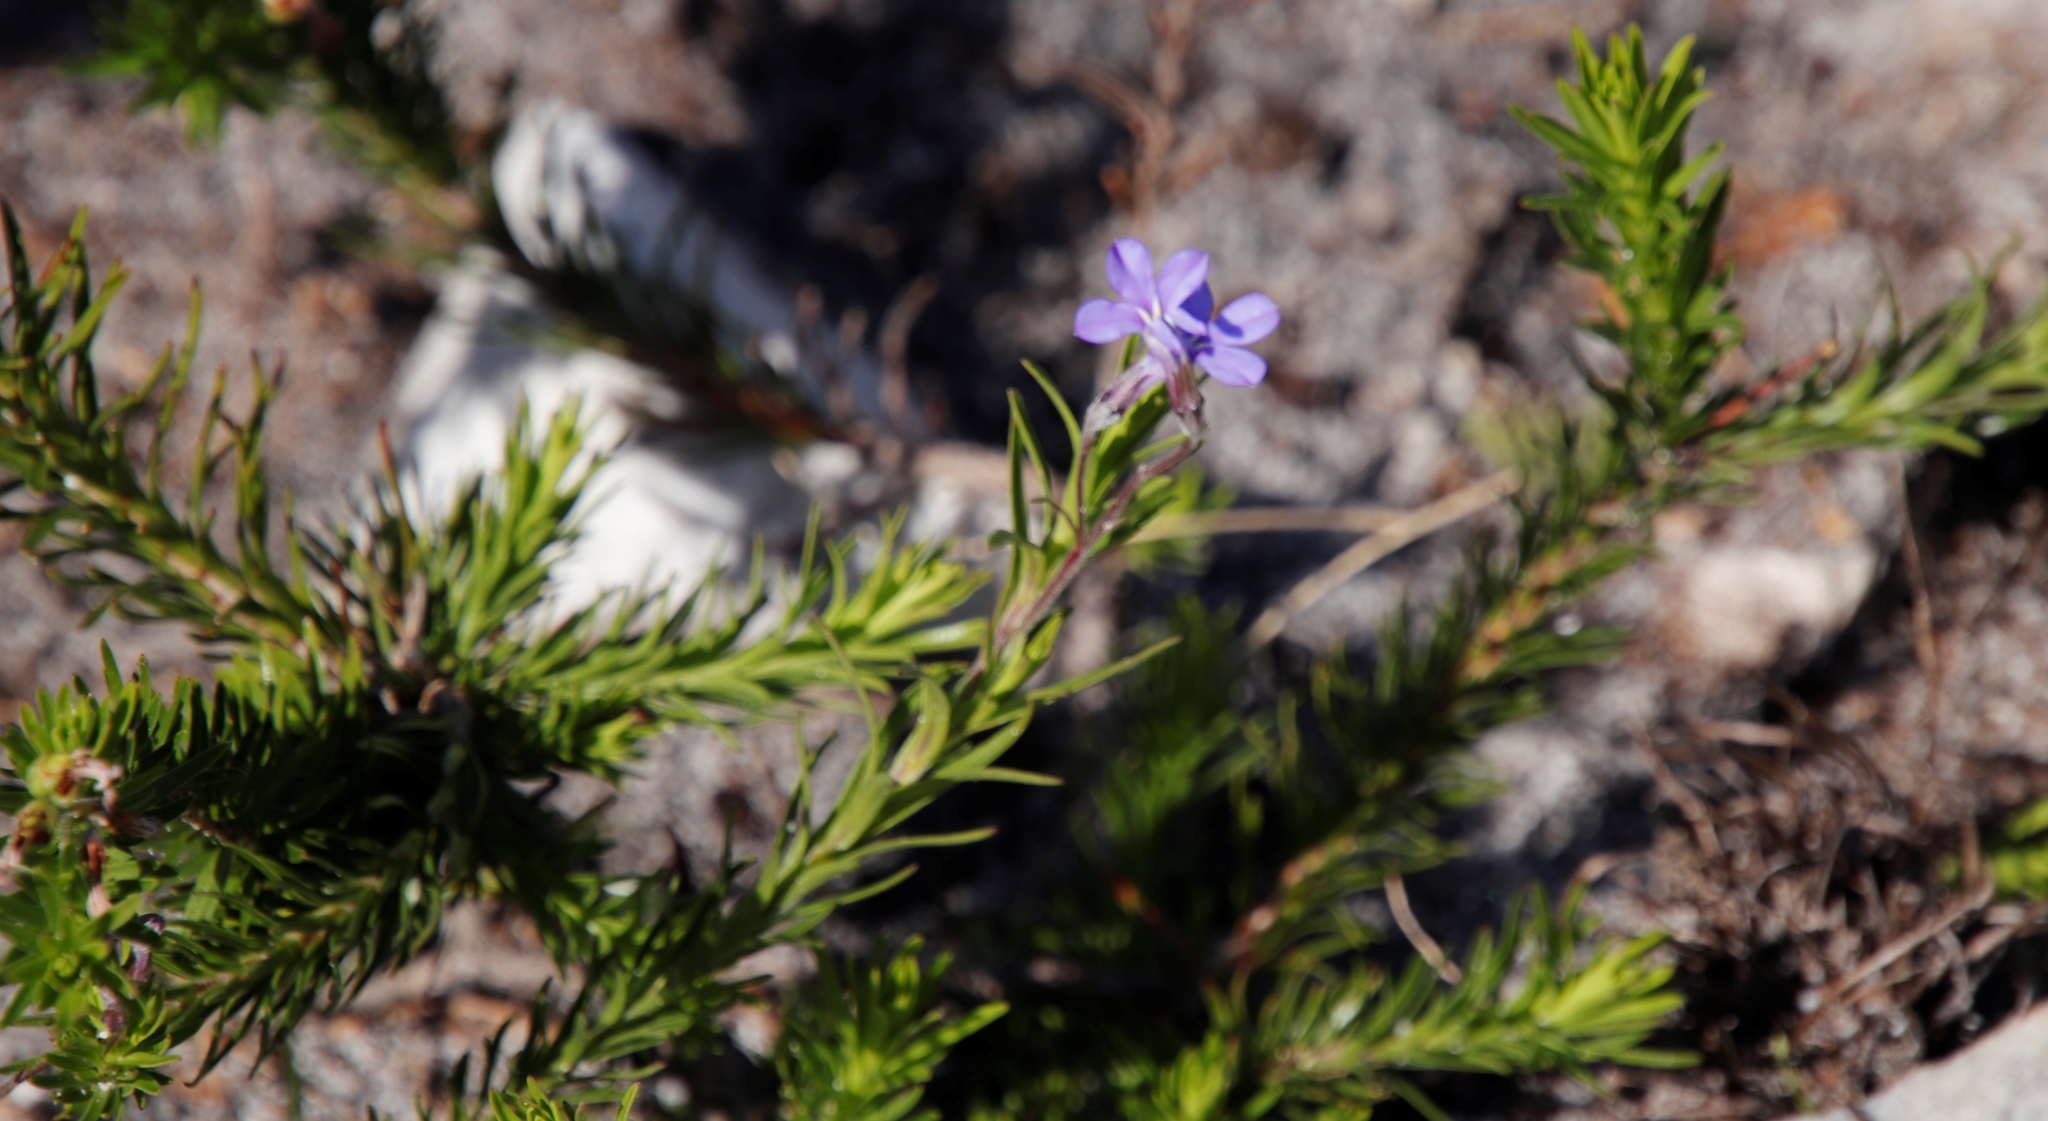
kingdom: Plantae
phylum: Tracheophyta
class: Magnoliopsida
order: Asterales
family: Campanulaceae
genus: Lobelia
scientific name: Lobelia pinifolia
